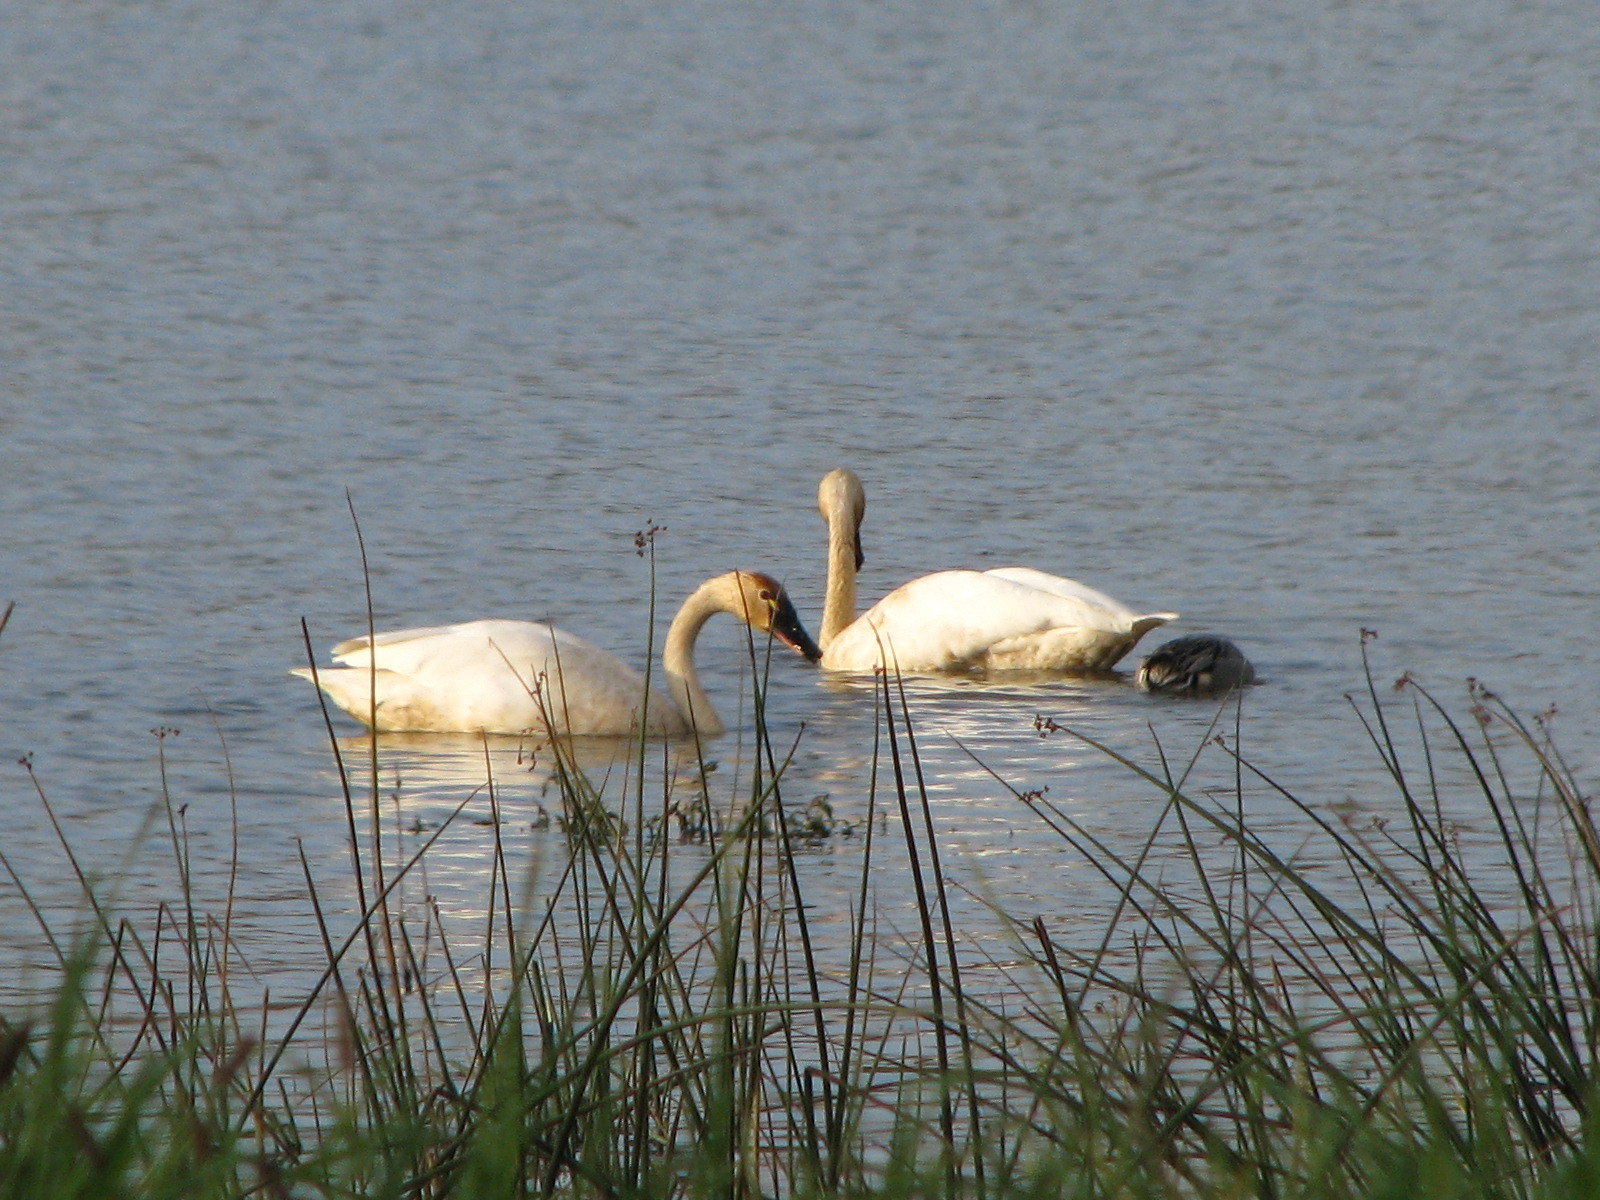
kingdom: Animalia
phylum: Chordata
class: Aves
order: Anseriformes
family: Anatidae
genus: Cygnus
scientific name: Cygnus columbianus
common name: Tundra swan
